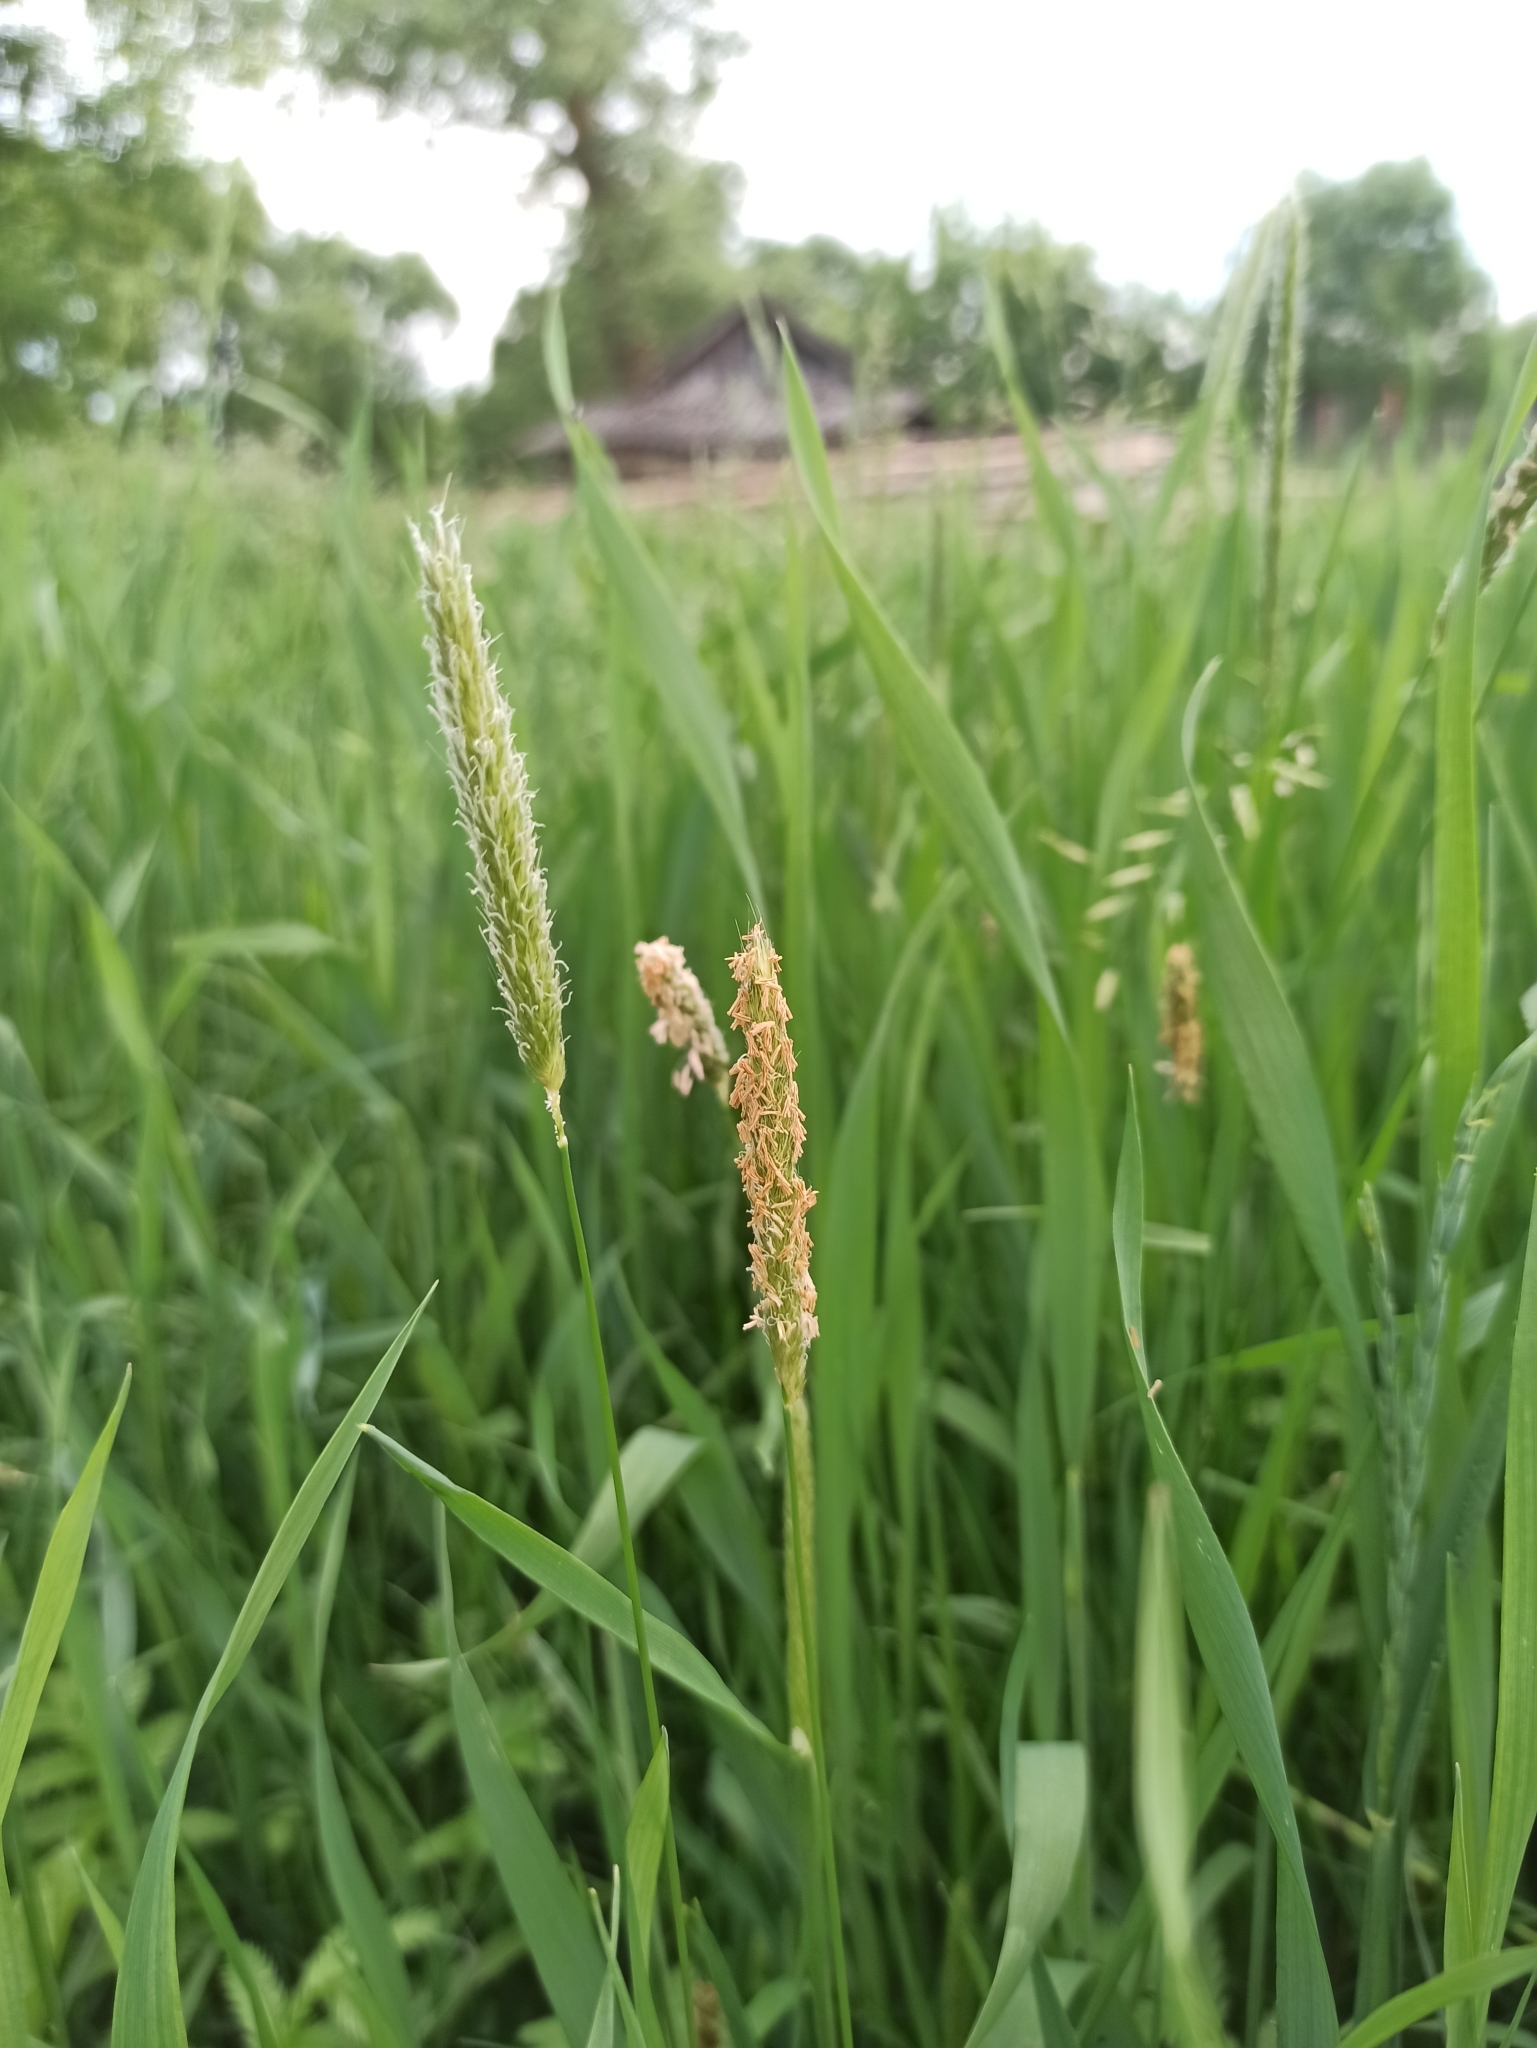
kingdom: Plantae
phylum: Tracheophyta
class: Liliopsida
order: Poales
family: Poaceae
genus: Alopecurus
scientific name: Alopecurus pratensis
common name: Meadow foxtail
